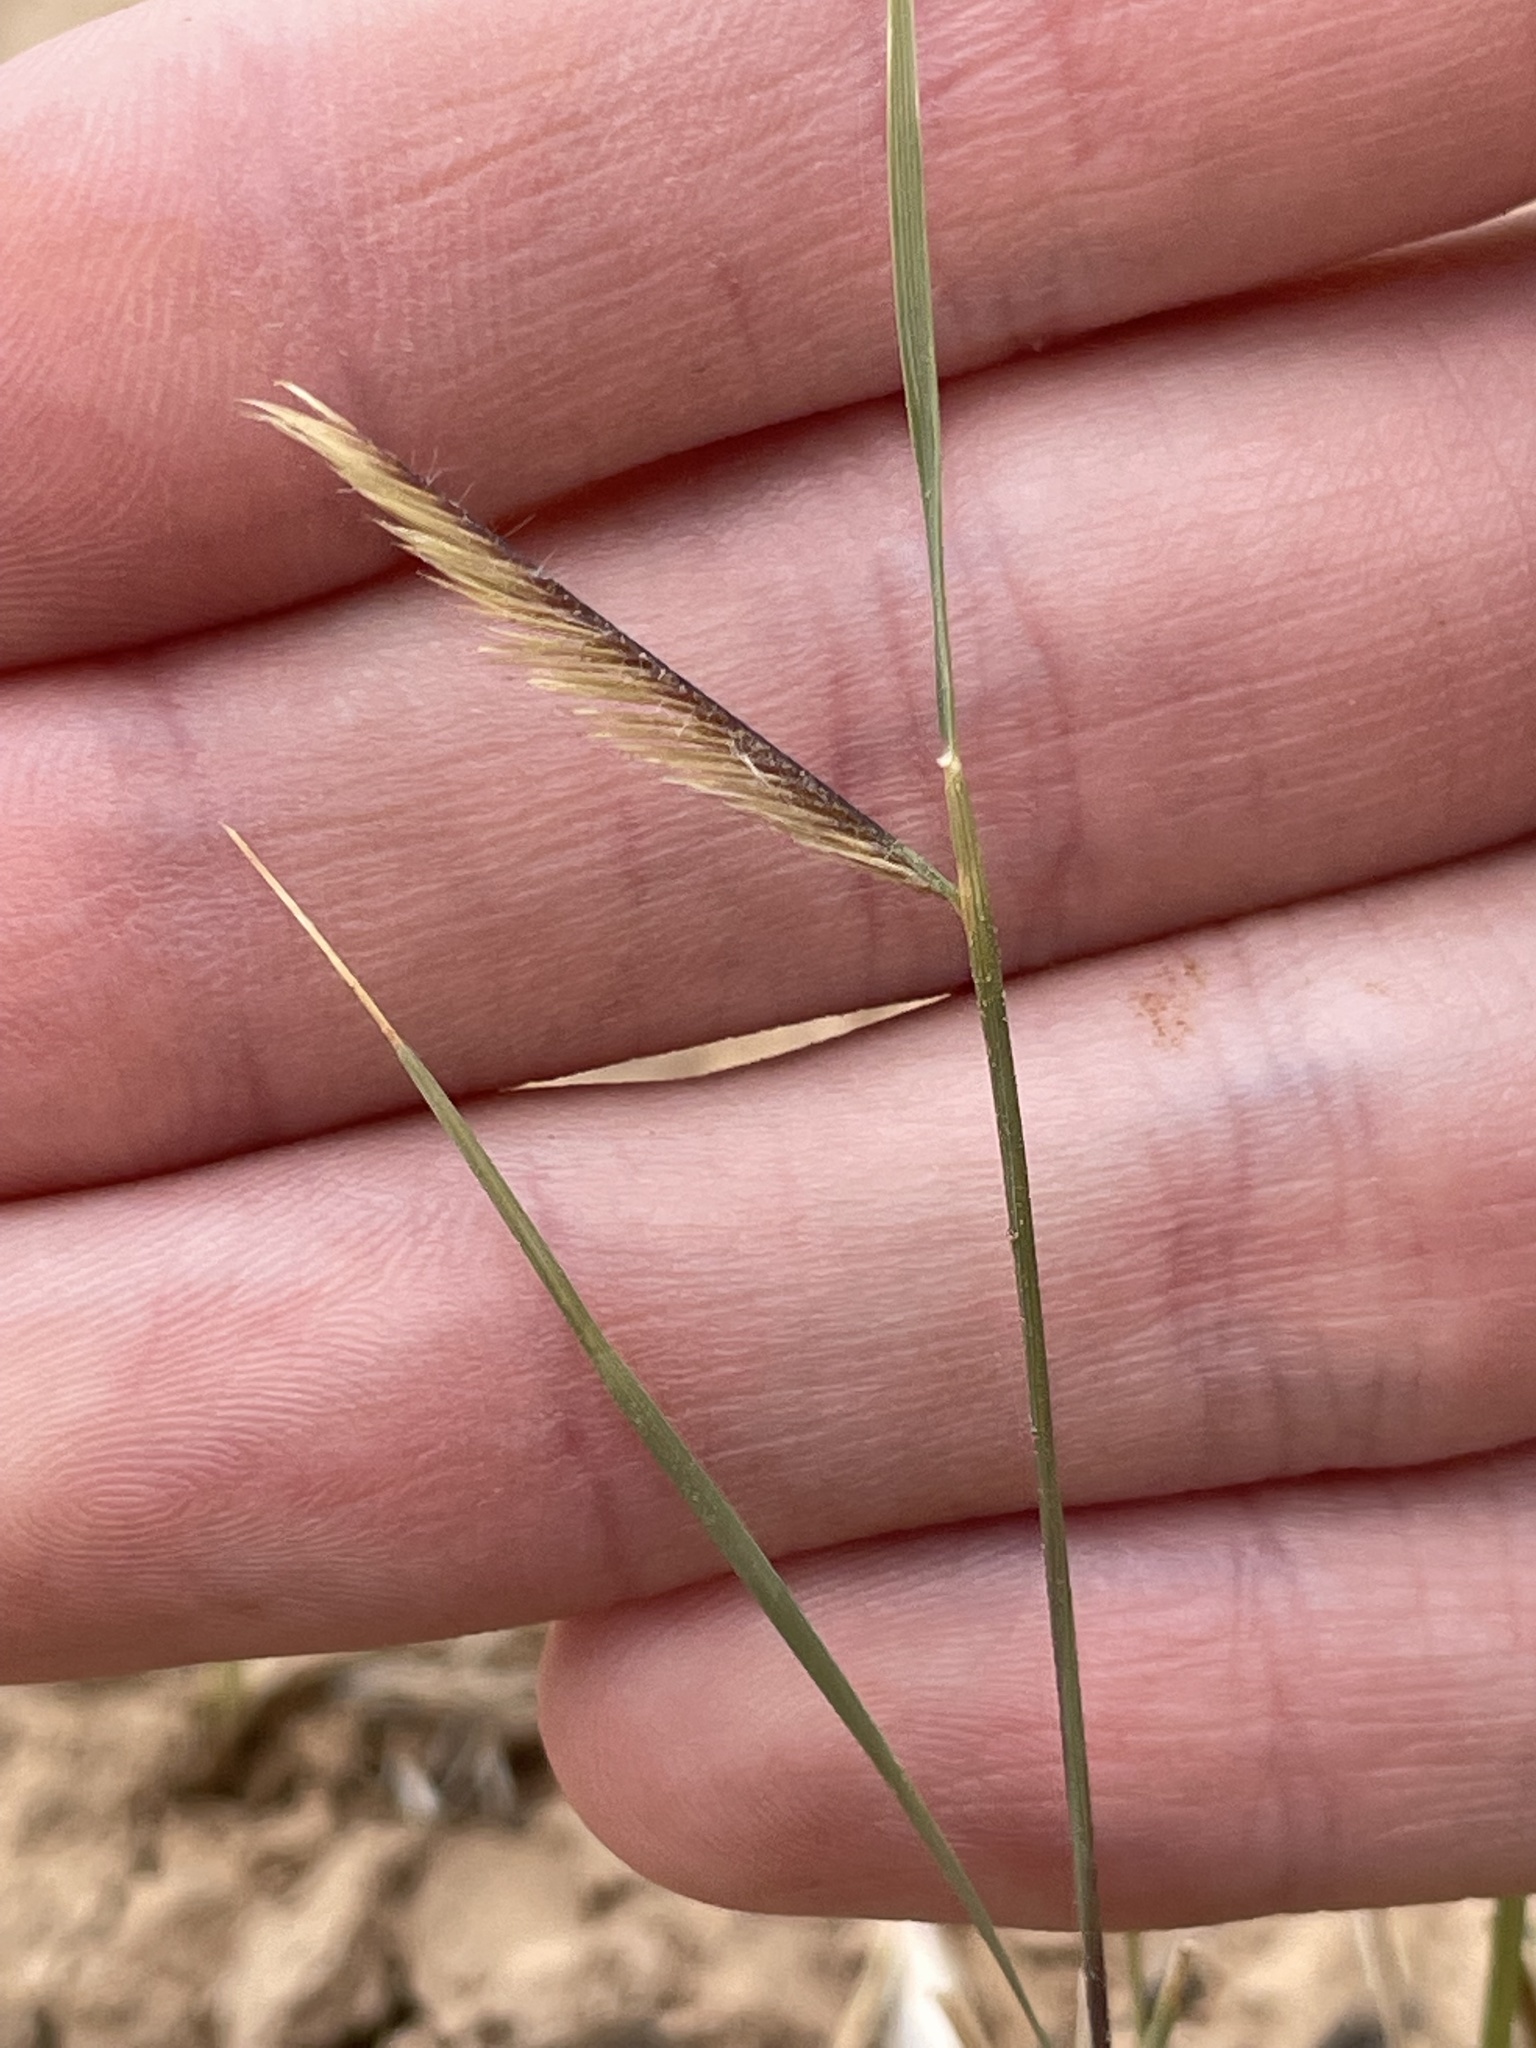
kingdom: Plantae
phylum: Tracheophyta
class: Liliopsida
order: Poales
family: Poaceae
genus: Bouteloua
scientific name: Bouteloua gracilis
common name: Blue grama
